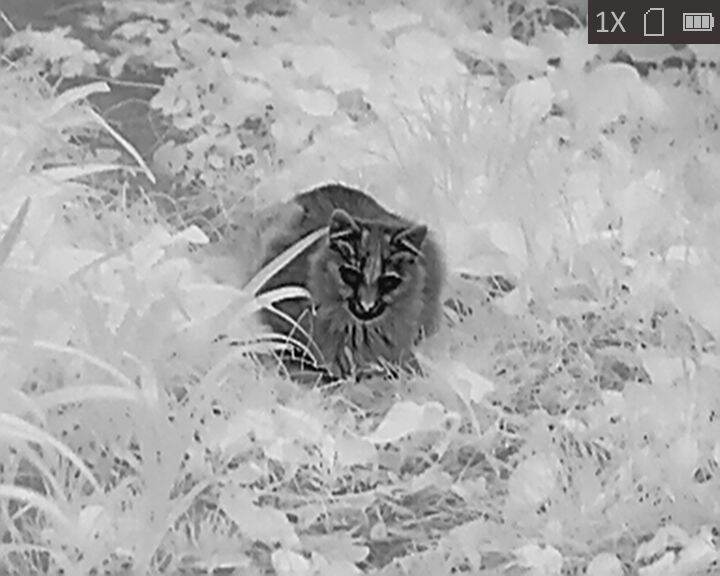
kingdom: Animalia
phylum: Chordata
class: Mammalia
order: Carnivora
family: Felidae
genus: Felis
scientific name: Felis catus
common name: Domestic cat
